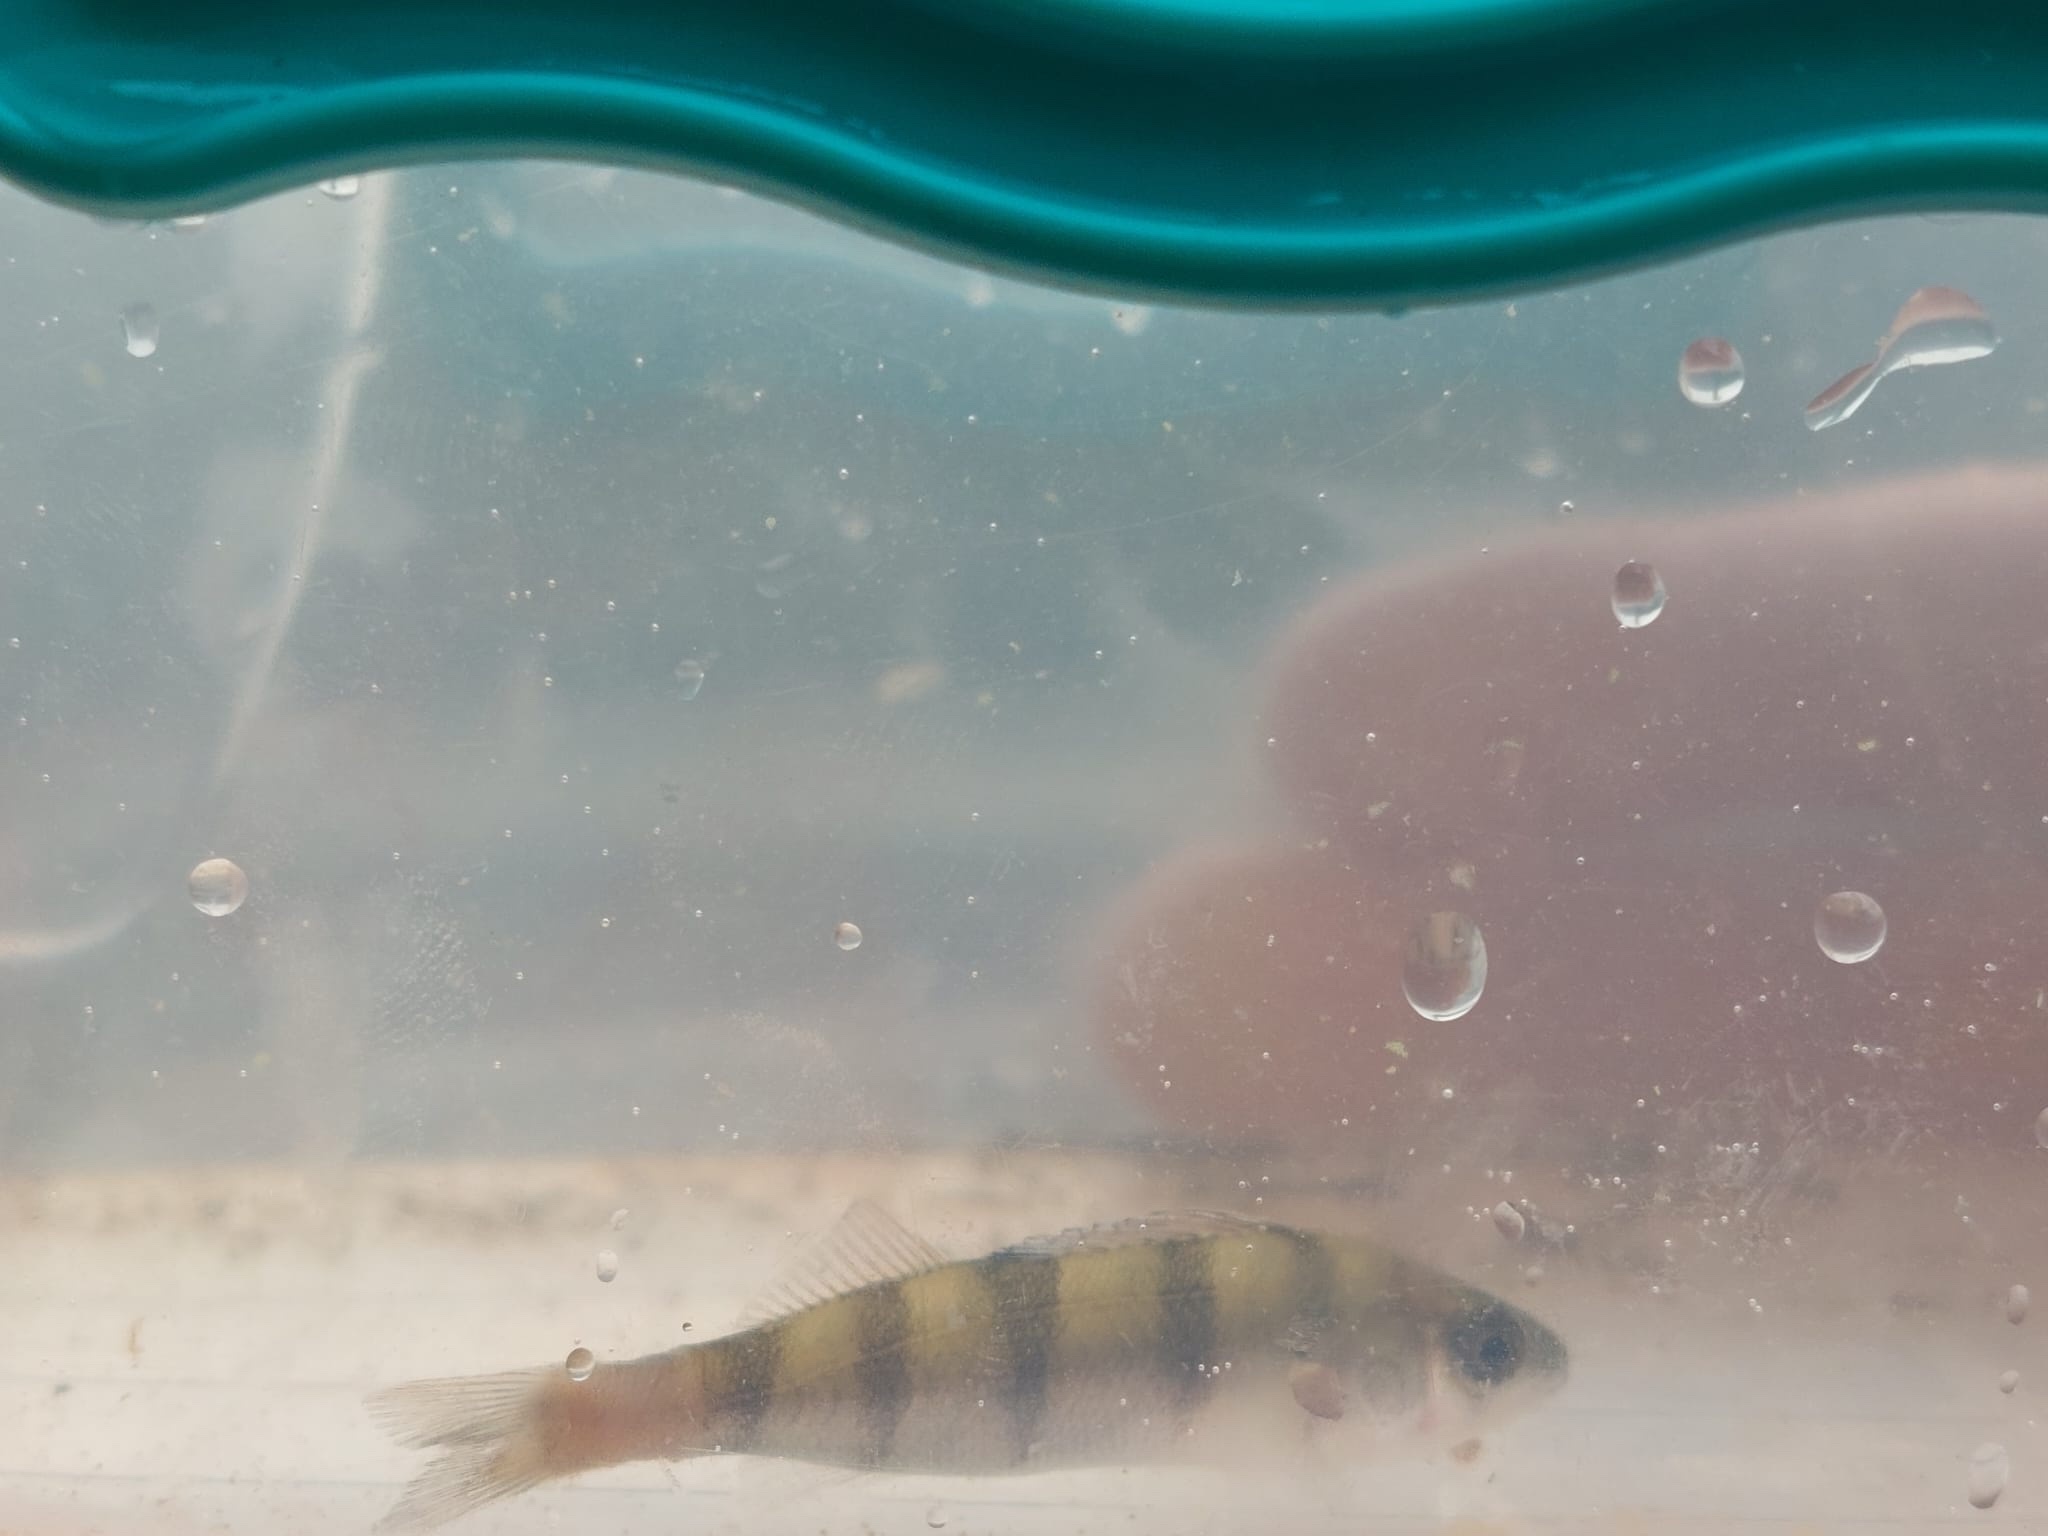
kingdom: Animalia
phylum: Chordata
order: Perciformes
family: Percidae
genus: Perca
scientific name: Perca fluviatilis
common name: Perch
